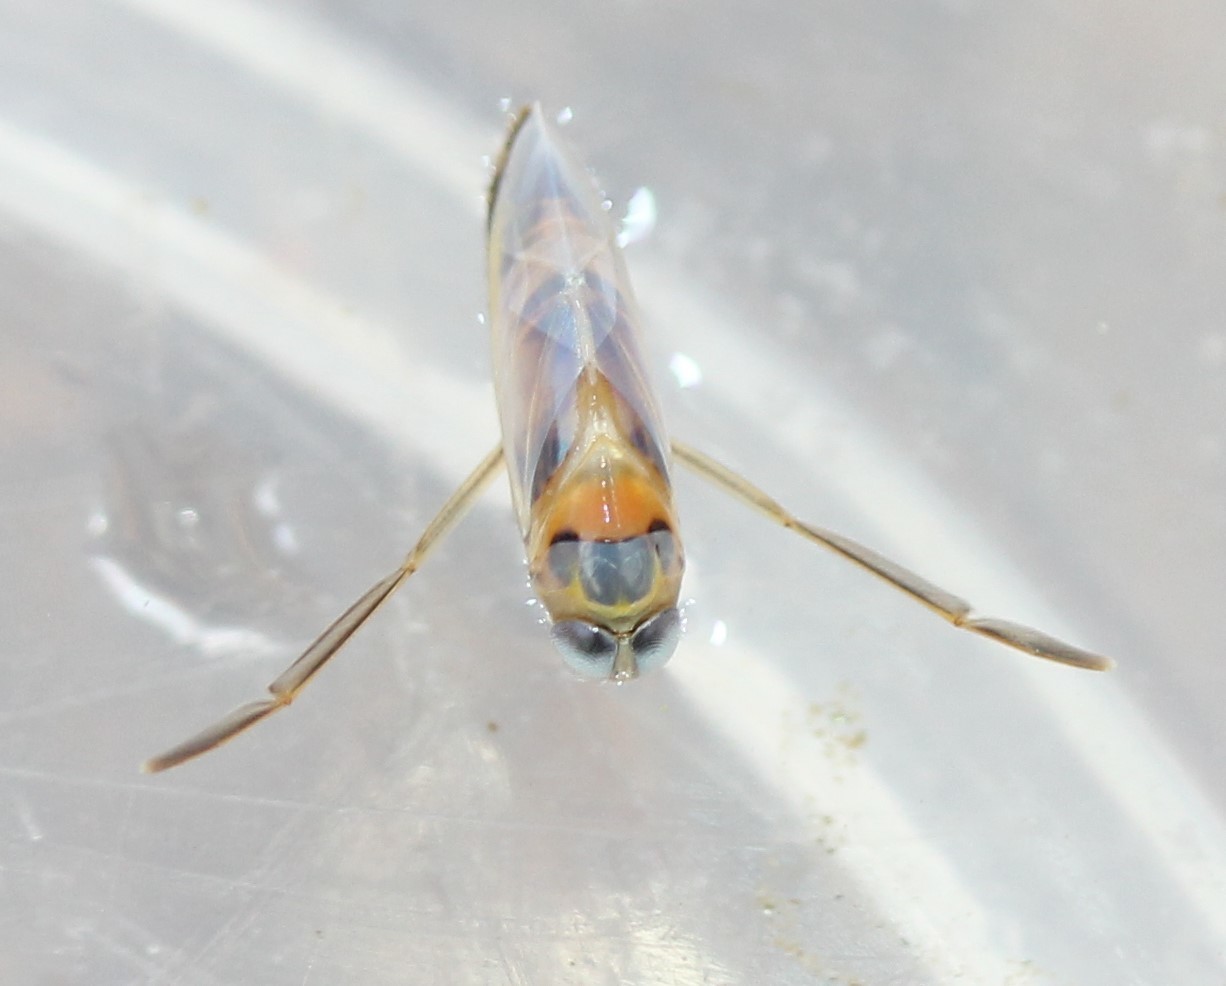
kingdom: Animalia
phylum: Arthropoda
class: Insecta
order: Hemiptera
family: Notonectidae
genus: Buenoa
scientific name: Buenoa
